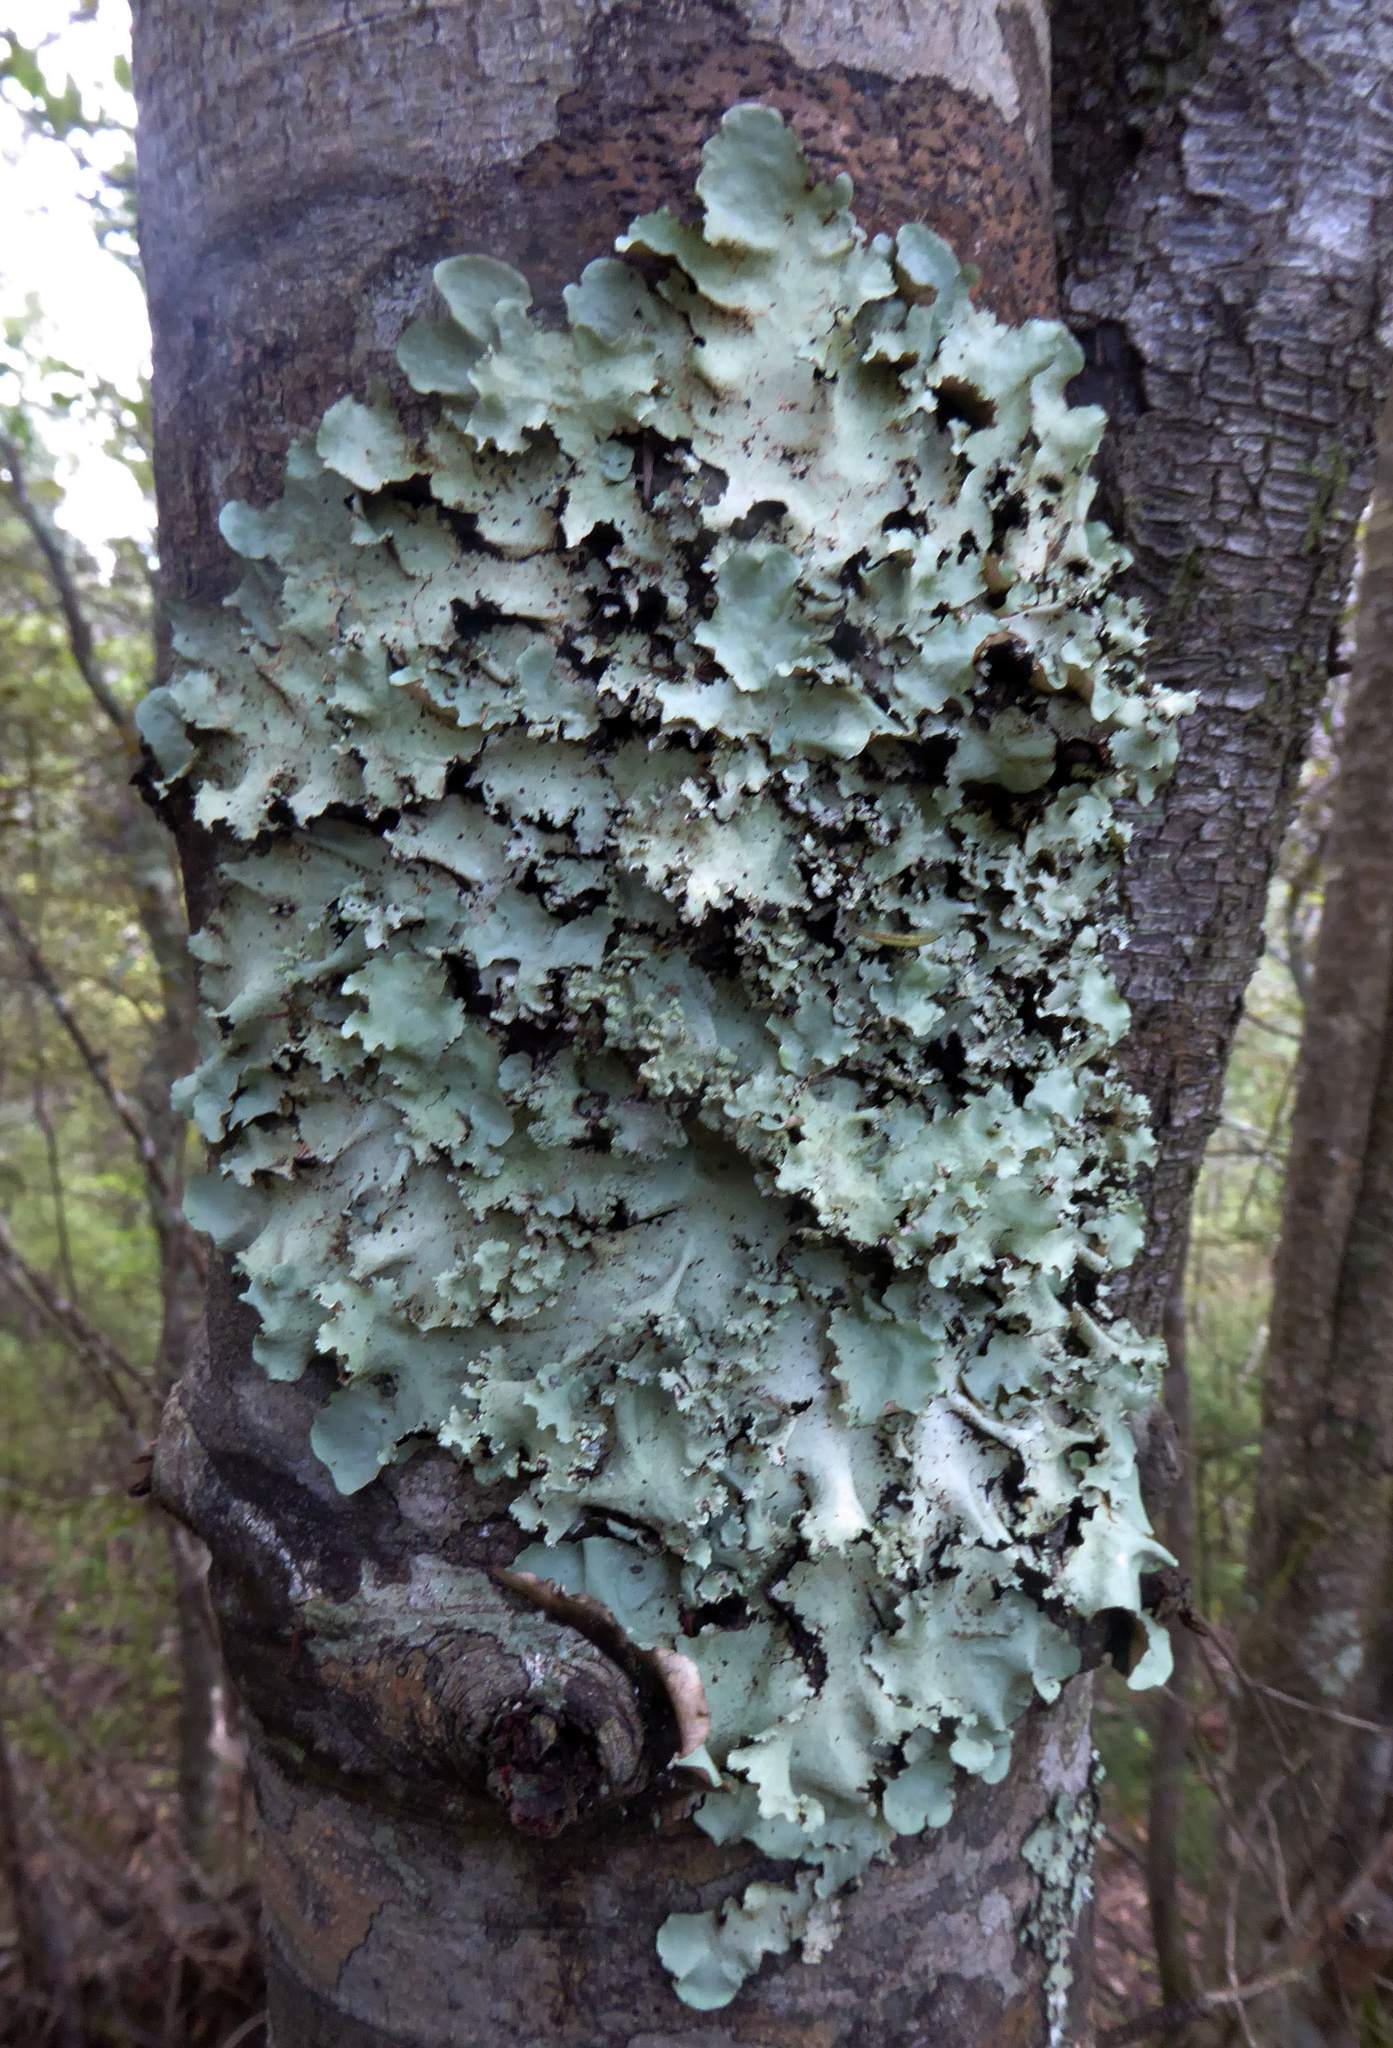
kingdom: Fungi
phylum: Ascomycota
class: Lecanoromycetes
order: Lecanorales
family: Parmeliaceae
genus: Parmotrema
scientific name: Parmotrema robustum
